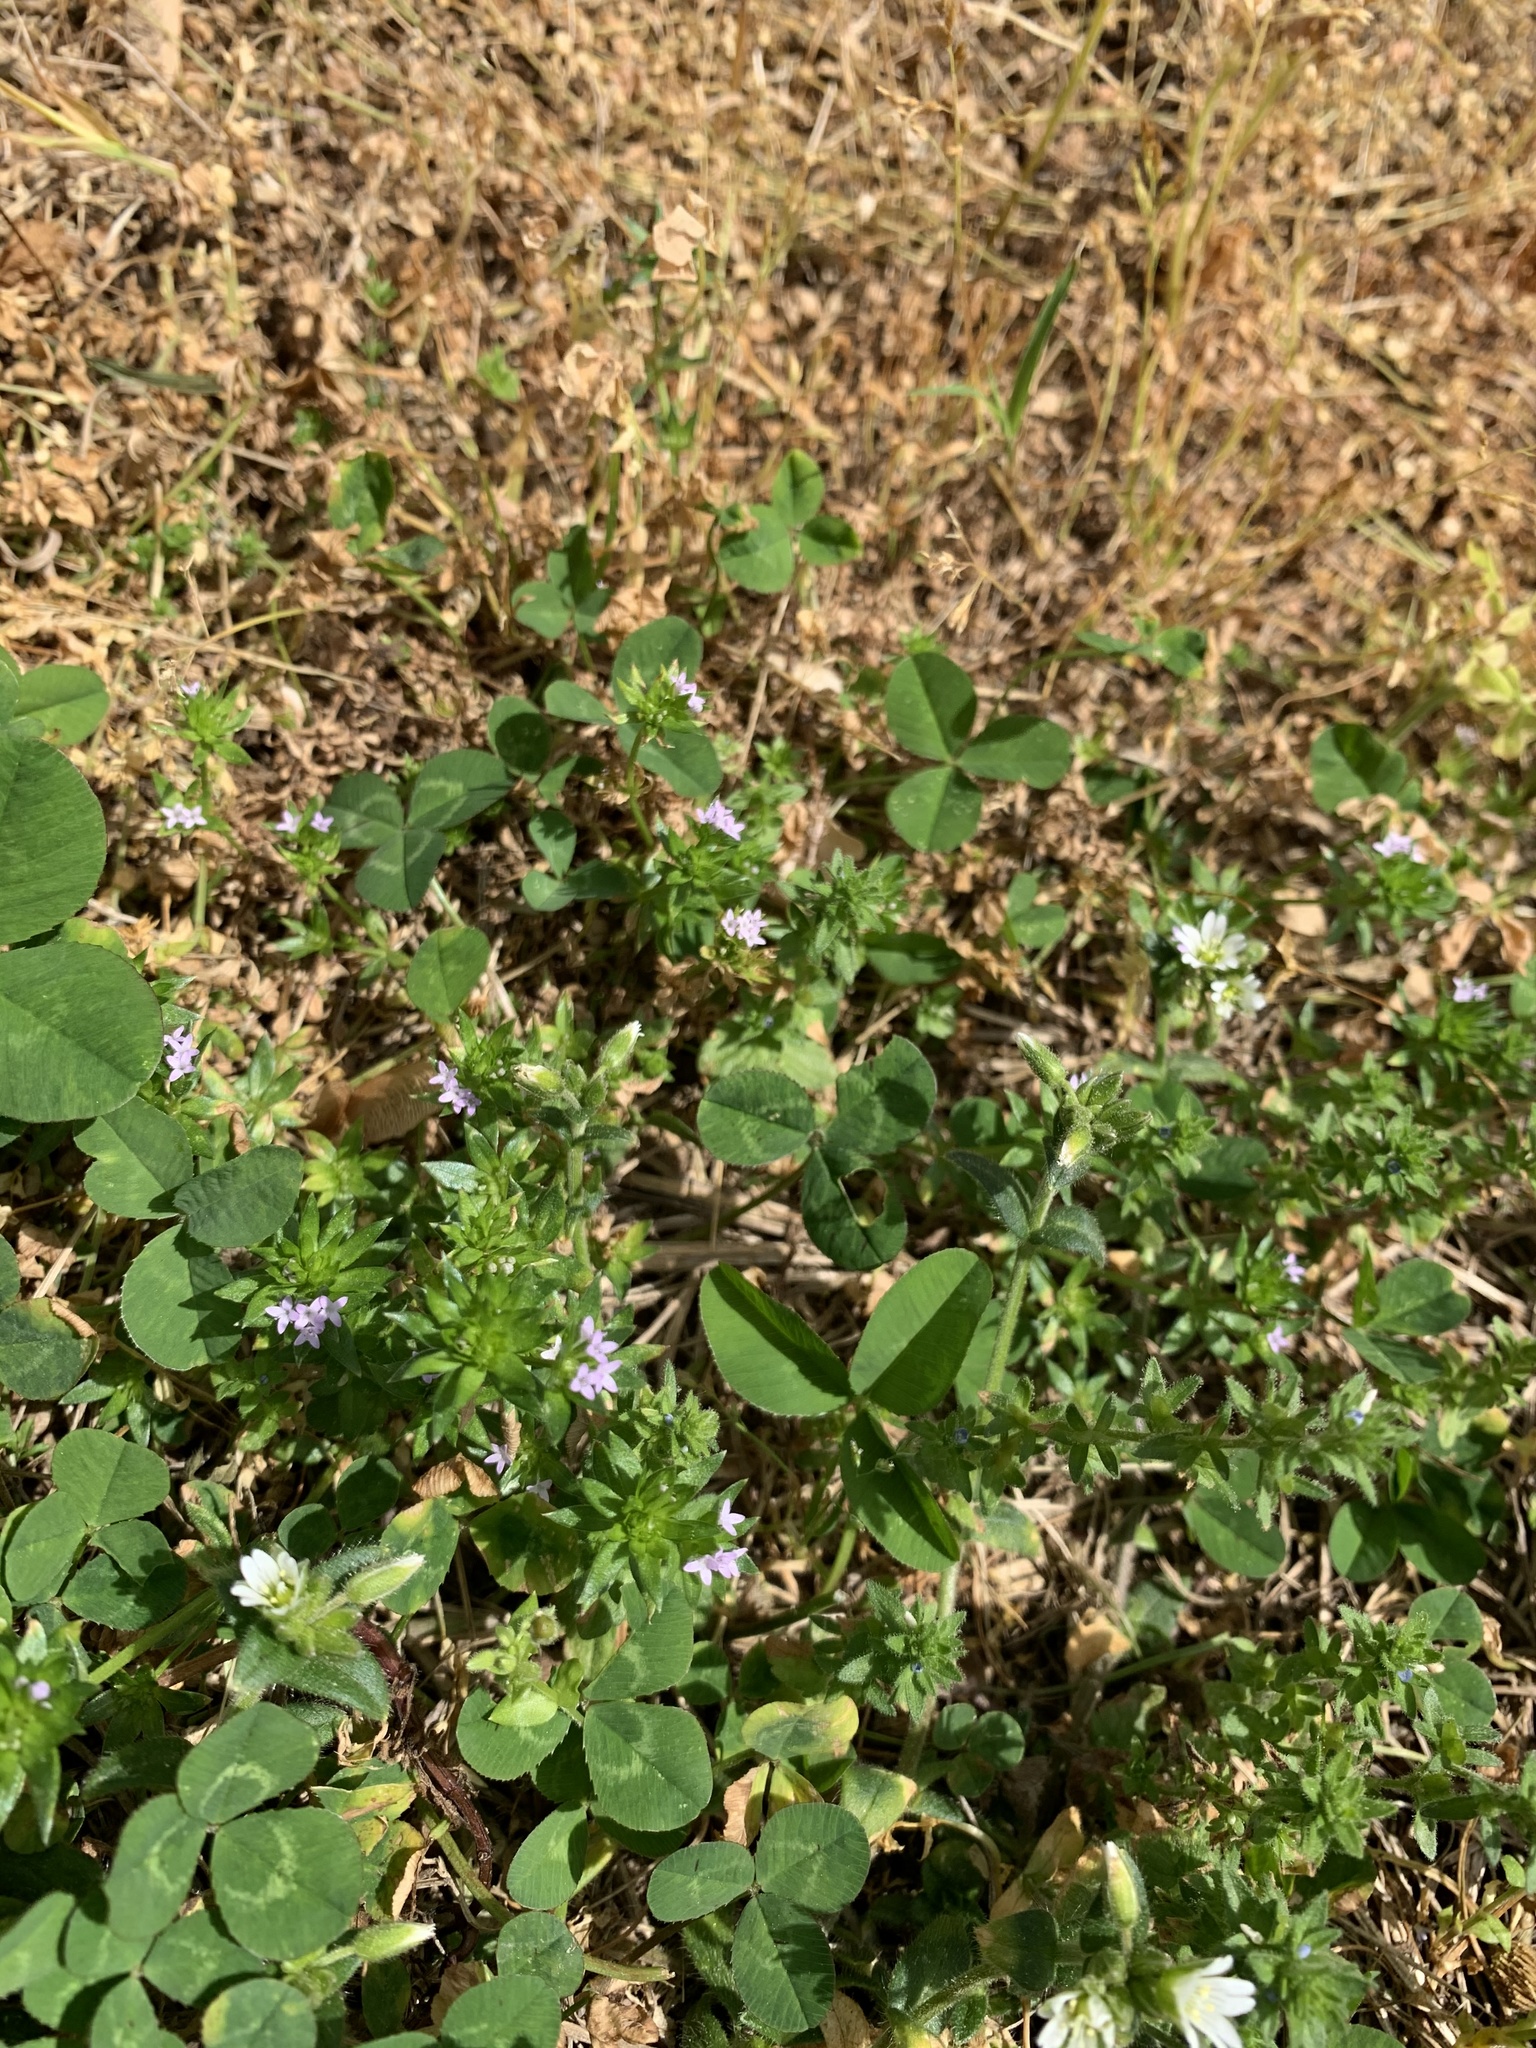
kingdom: Plantae
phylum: Tracheophyta
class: Magnoliopsida
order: Gentianales
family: Rubiaceae
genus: Sherardia
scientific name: Sherardia arvensis
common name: Field madder
